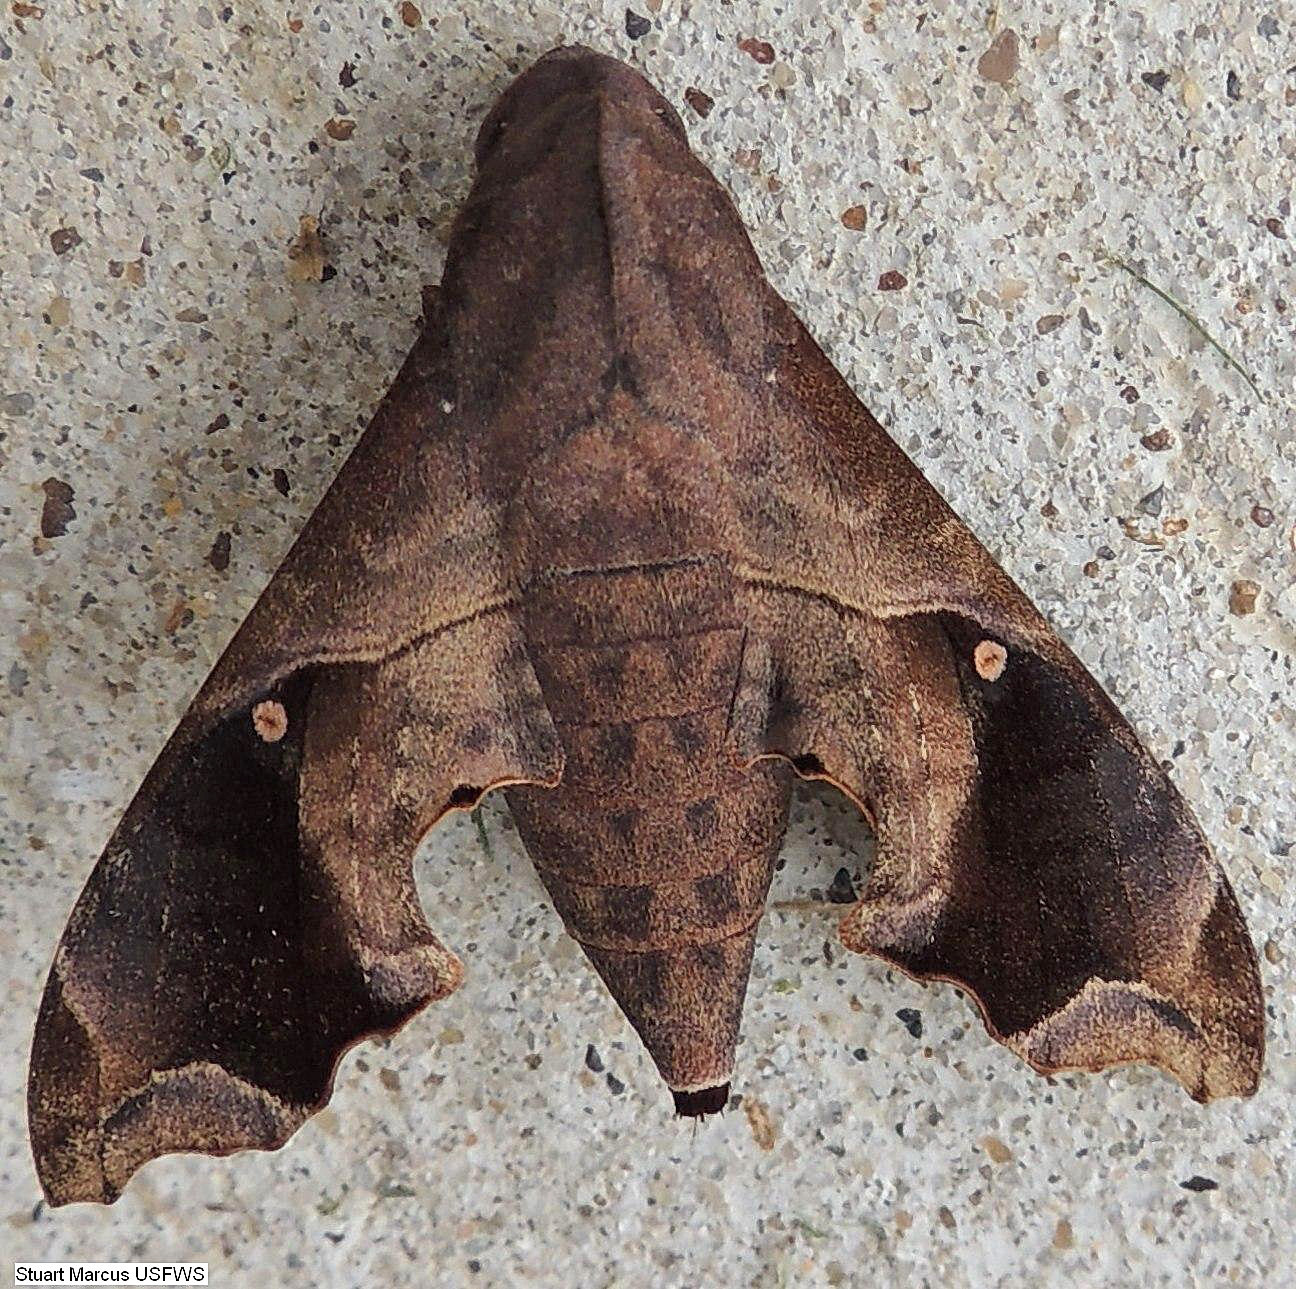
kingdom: Animalia
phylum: Arthropoda
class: Insecta
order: Lepidoptera
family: Sphingidae
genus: Enyo
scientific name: Enyo lugubris
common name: Mournful sphinx
